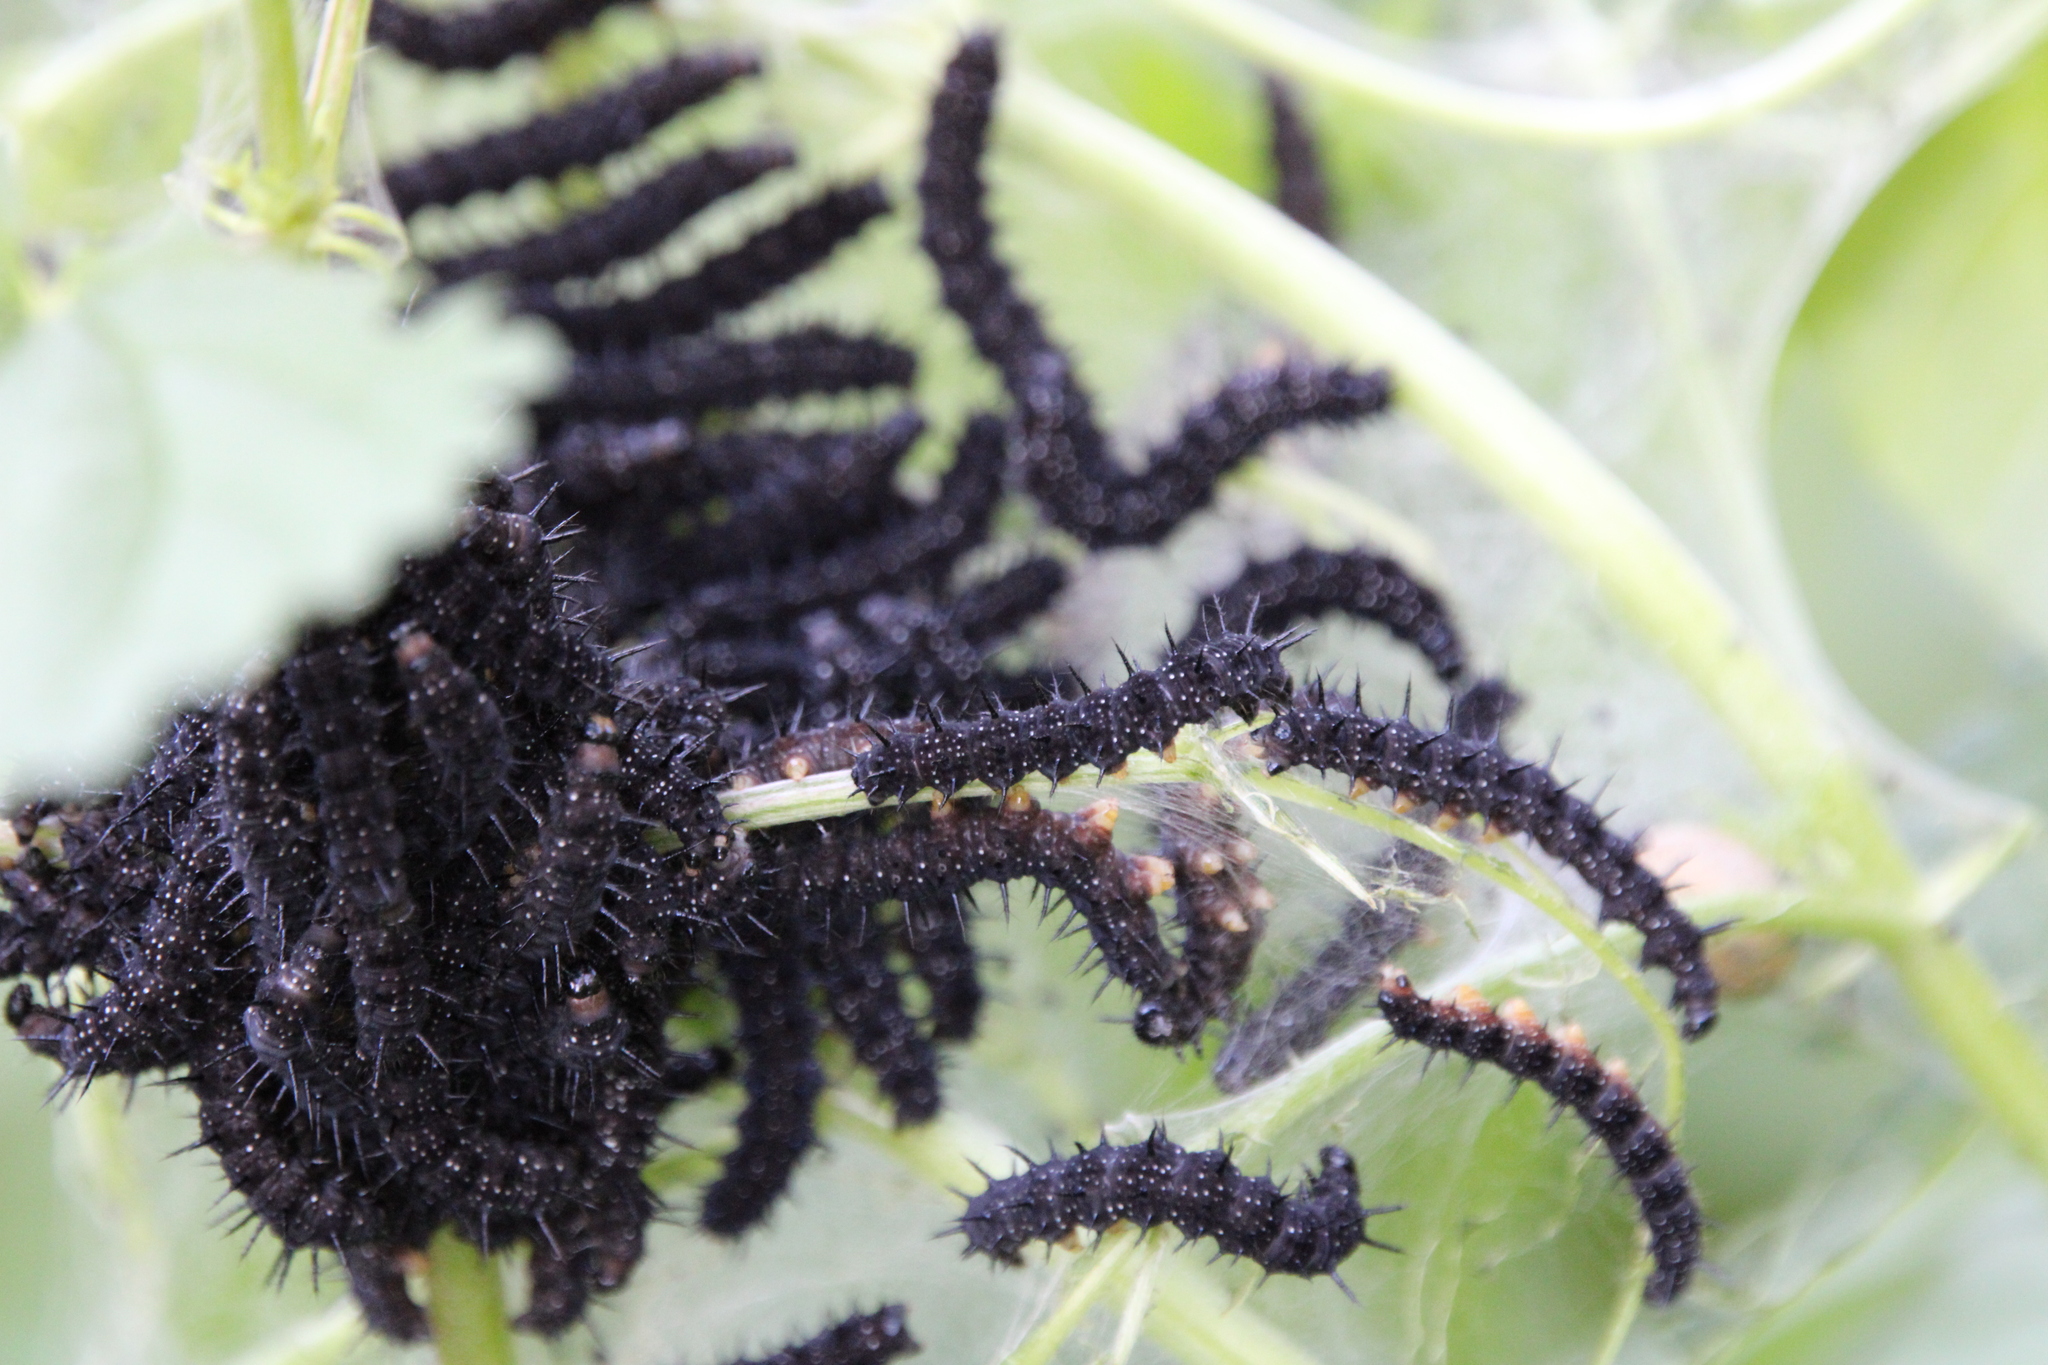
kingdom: Animalia
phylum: Arthropoda
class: Insecta
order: Lepidoptera
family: Nymphalidae
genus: Aglais
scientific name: Aglais io
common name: Peacock
